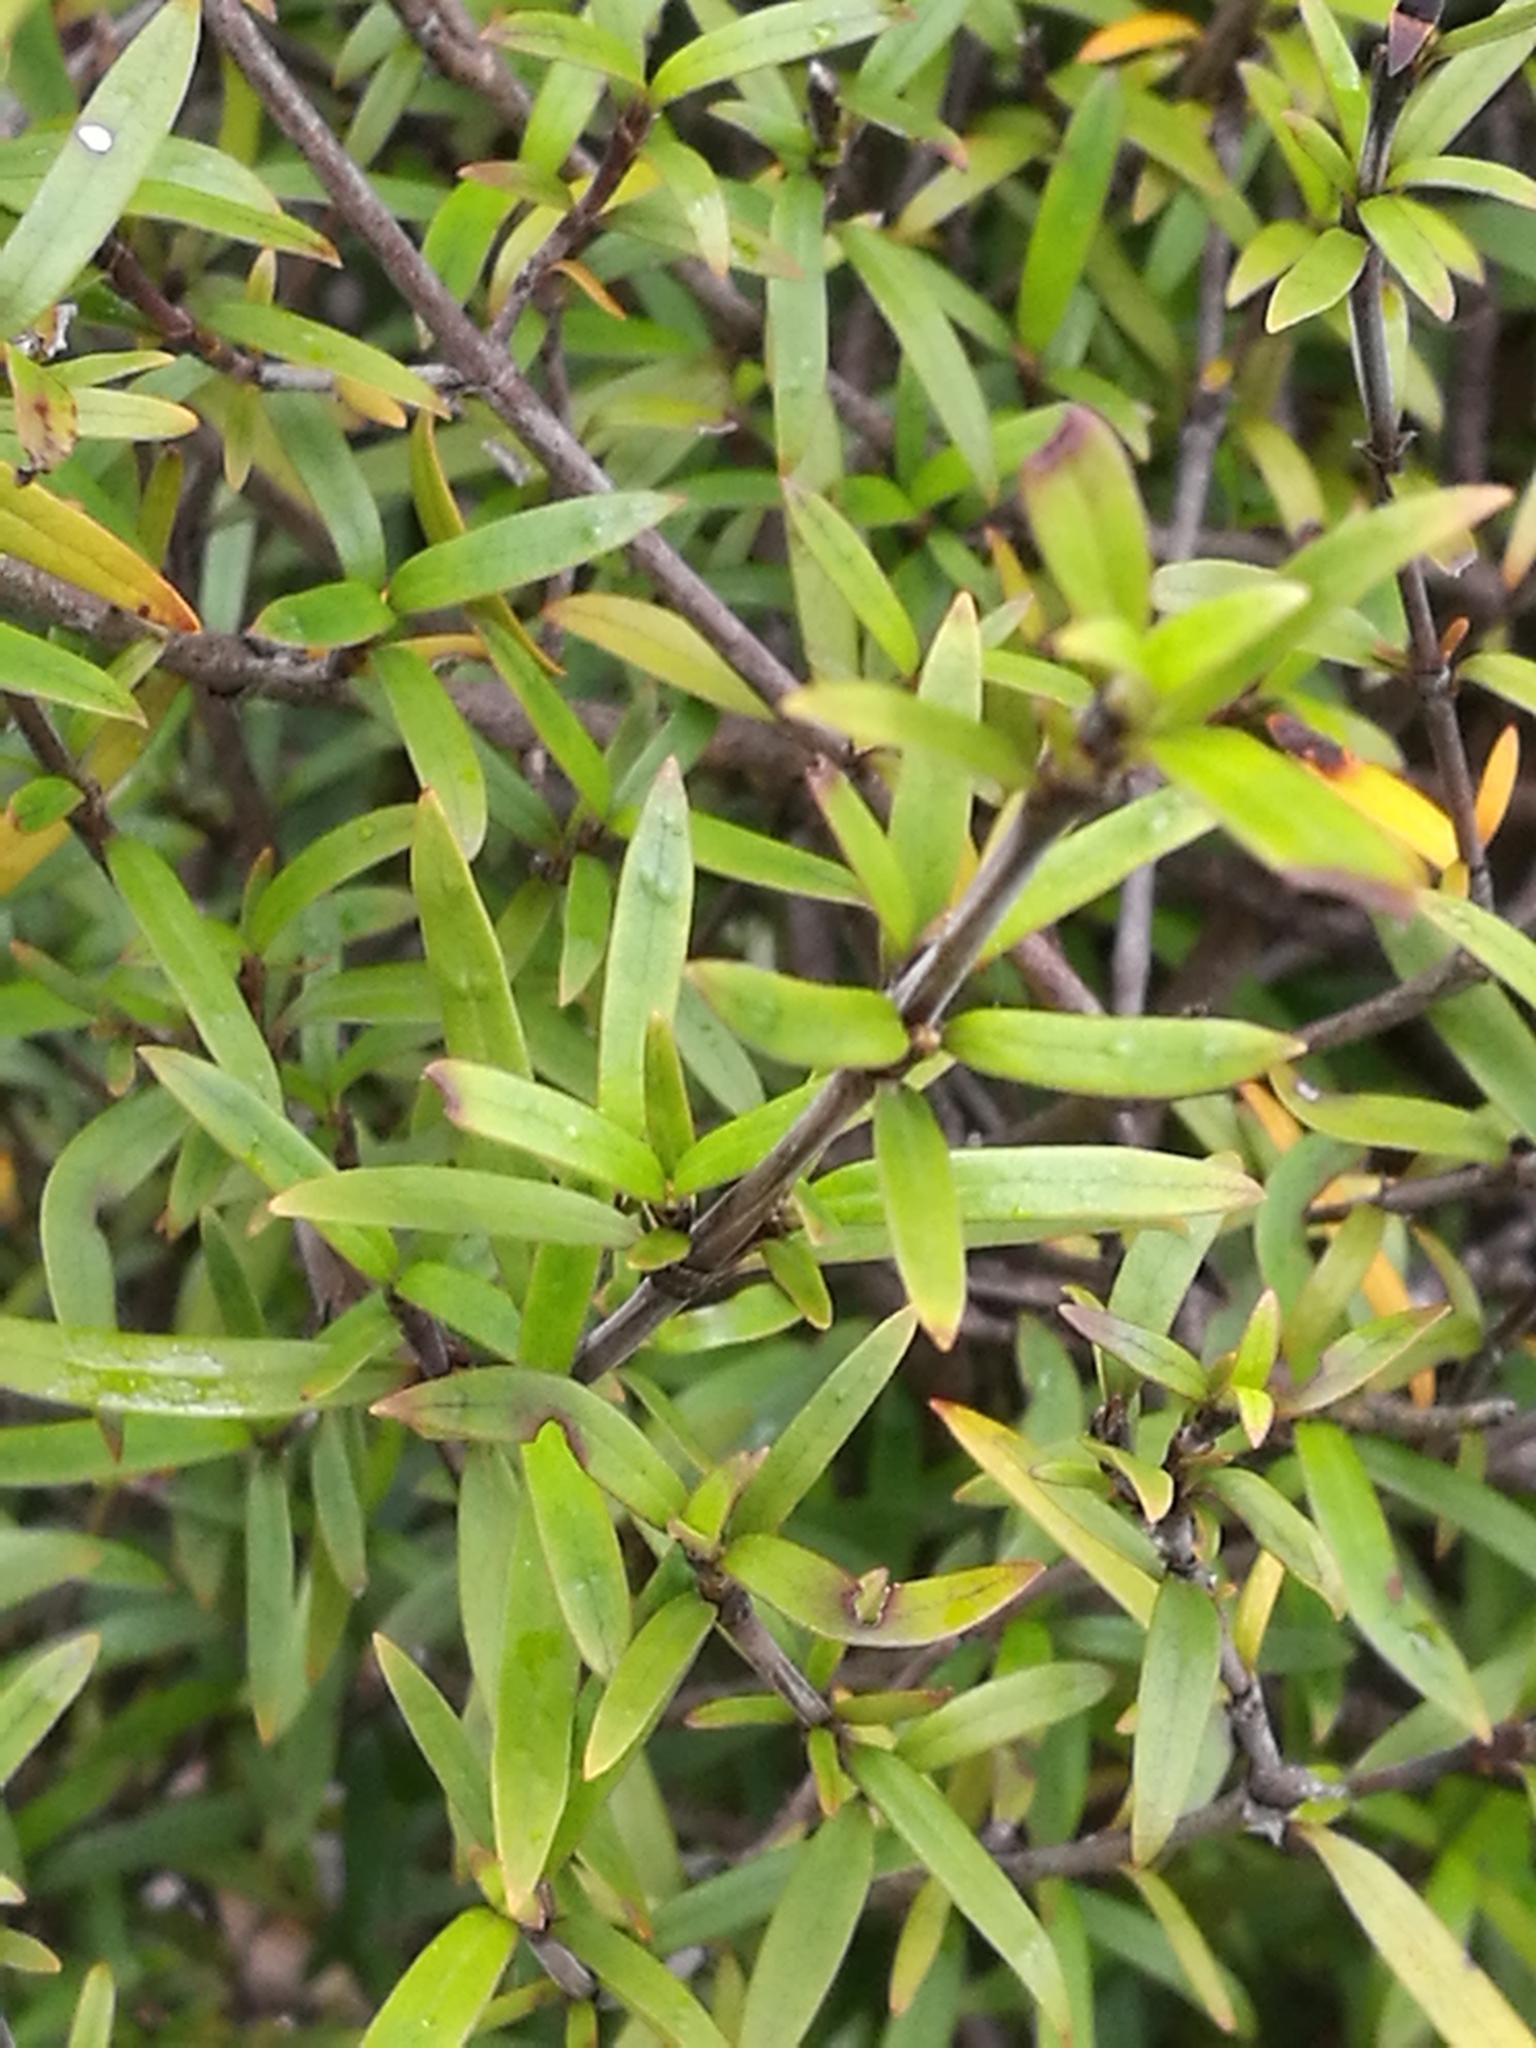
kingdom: Plantae
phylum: Tracheophyta
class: Magnoliopsida
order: Gentianales
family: Rubiaceae
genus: Coprosma
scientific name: Coprosma linariifolia
